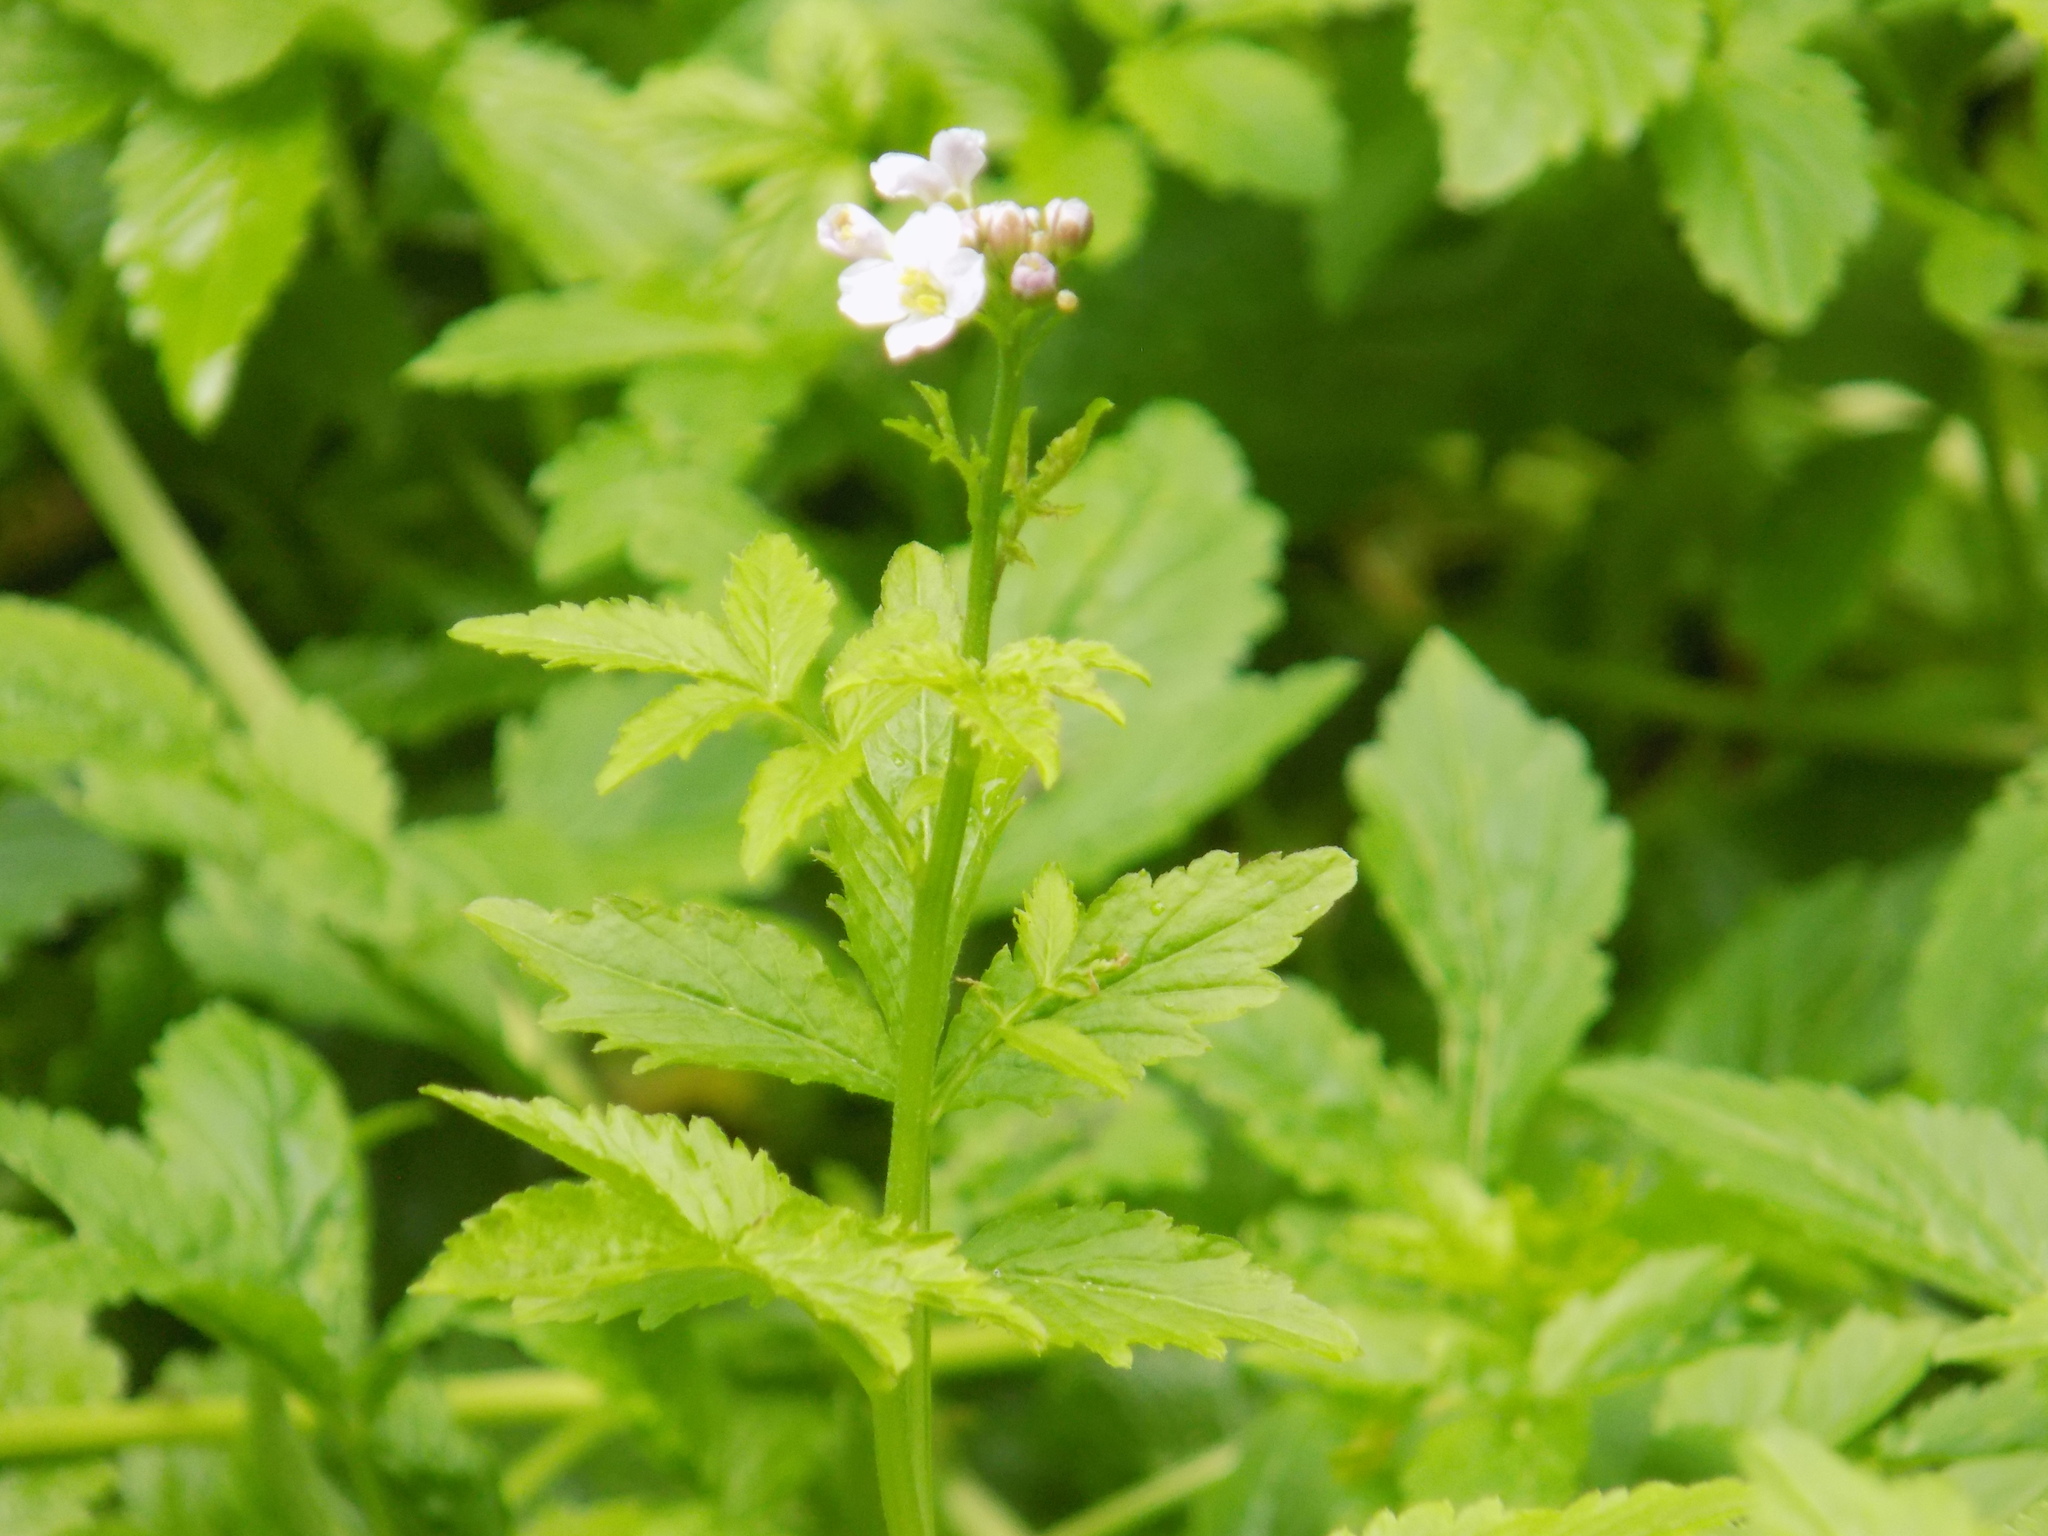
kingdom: Plantae
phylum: Tracheophyta
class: Magnoliopsida
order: Brassicales
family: Brassicaceae
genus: Cardamine
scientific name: Cardamine macrophylla
